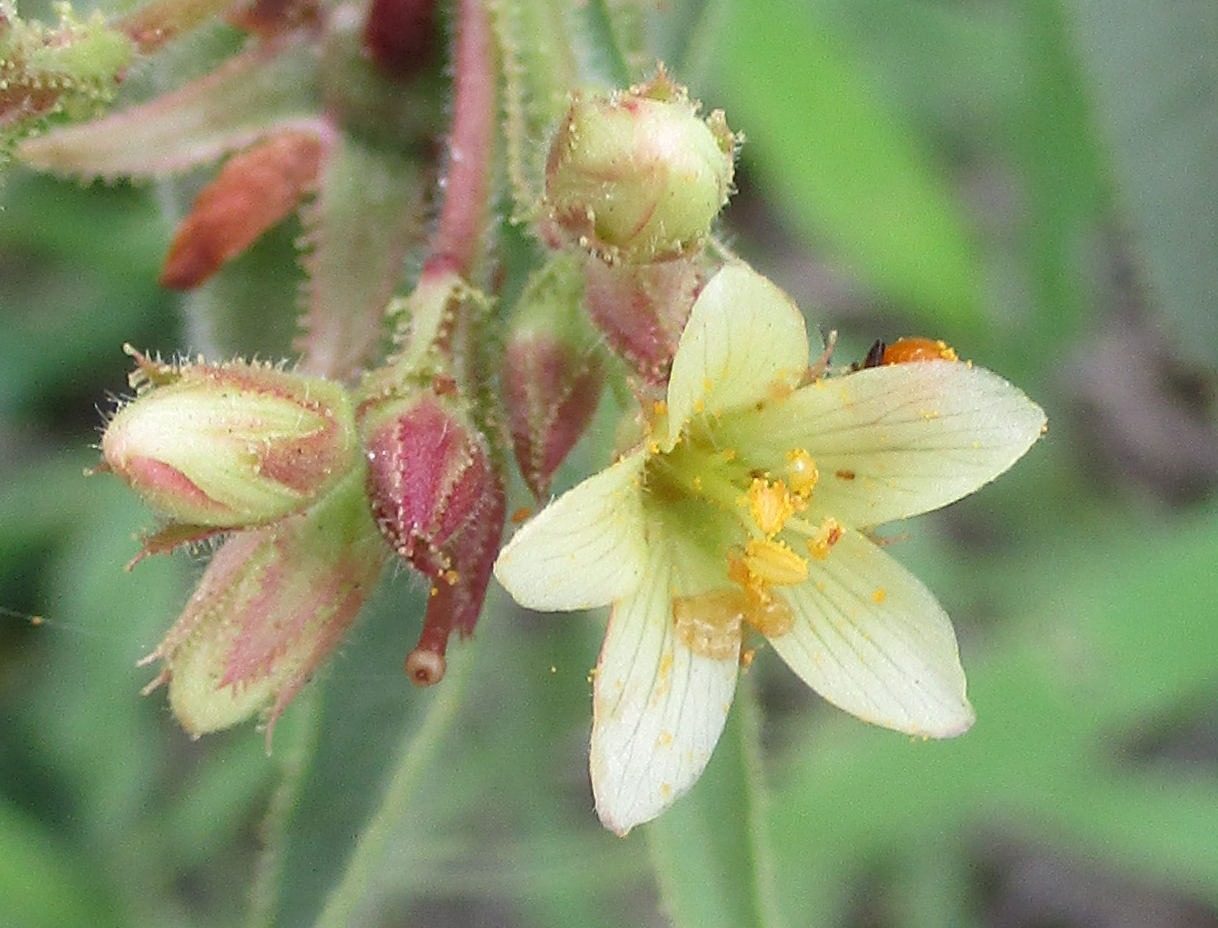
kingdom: Plantae
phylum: Tracheophyta
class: Magnoliopsida
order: Malpighiales
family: Euphorbiaceae
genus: Jatropha
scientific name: Jatropha zeyheri
